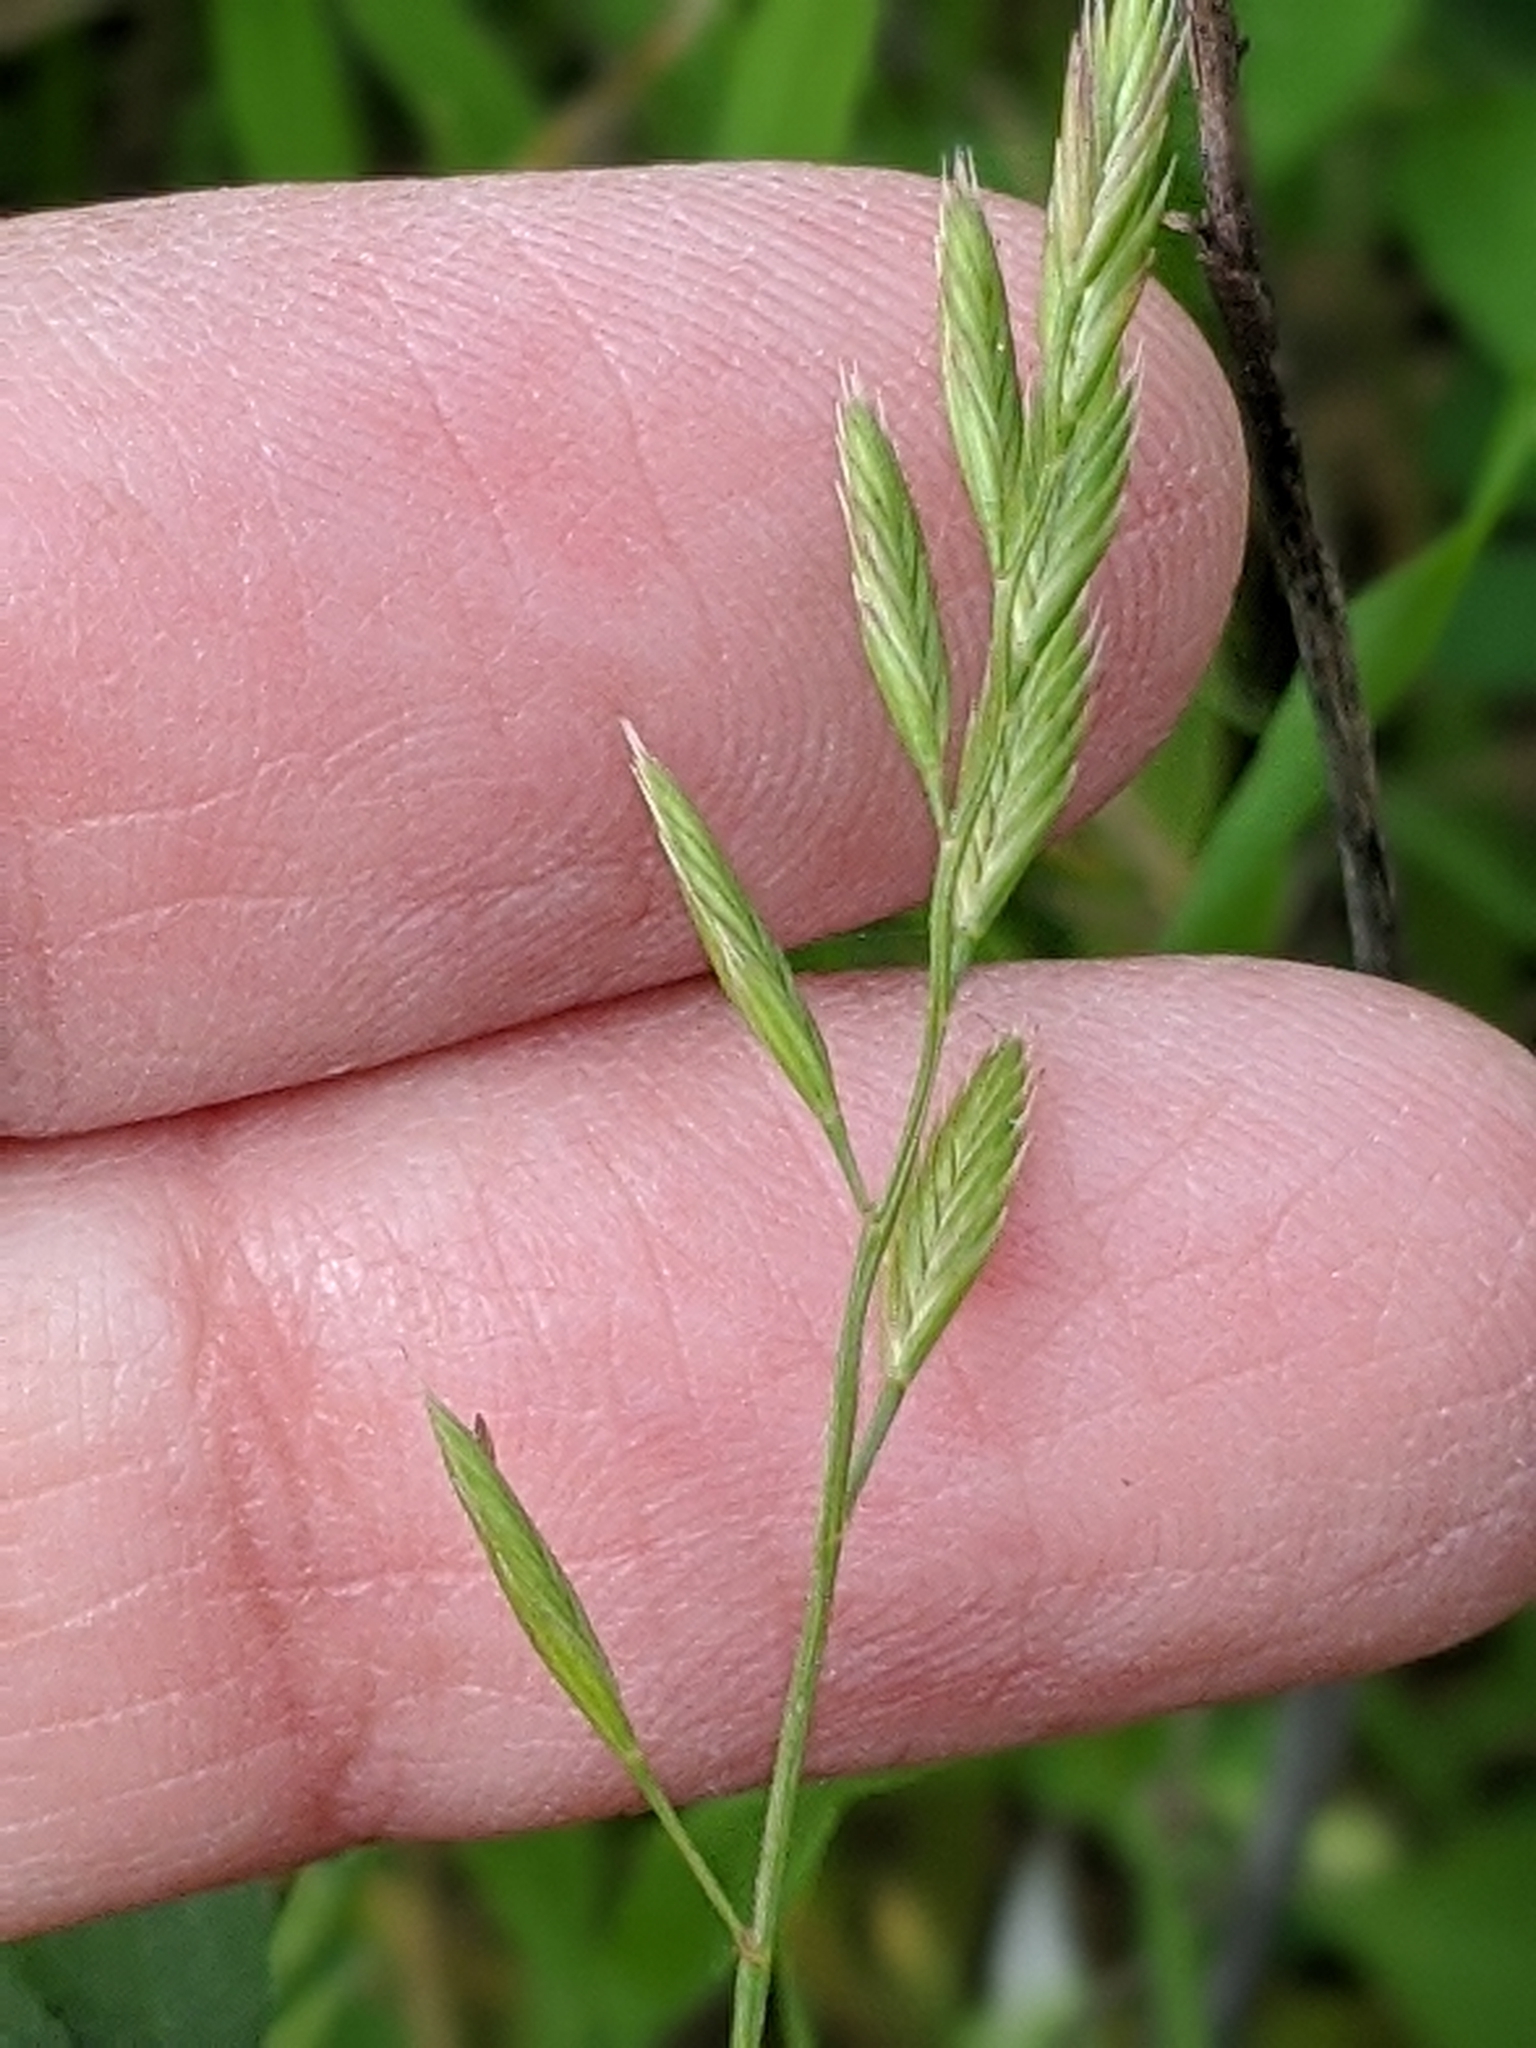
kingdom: Plantae
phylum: Tracheophyta
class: Liliopsida
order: Poales
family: Poaceae
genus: Festuca
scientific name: Festuca octoflora
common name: Sixweeks grass
